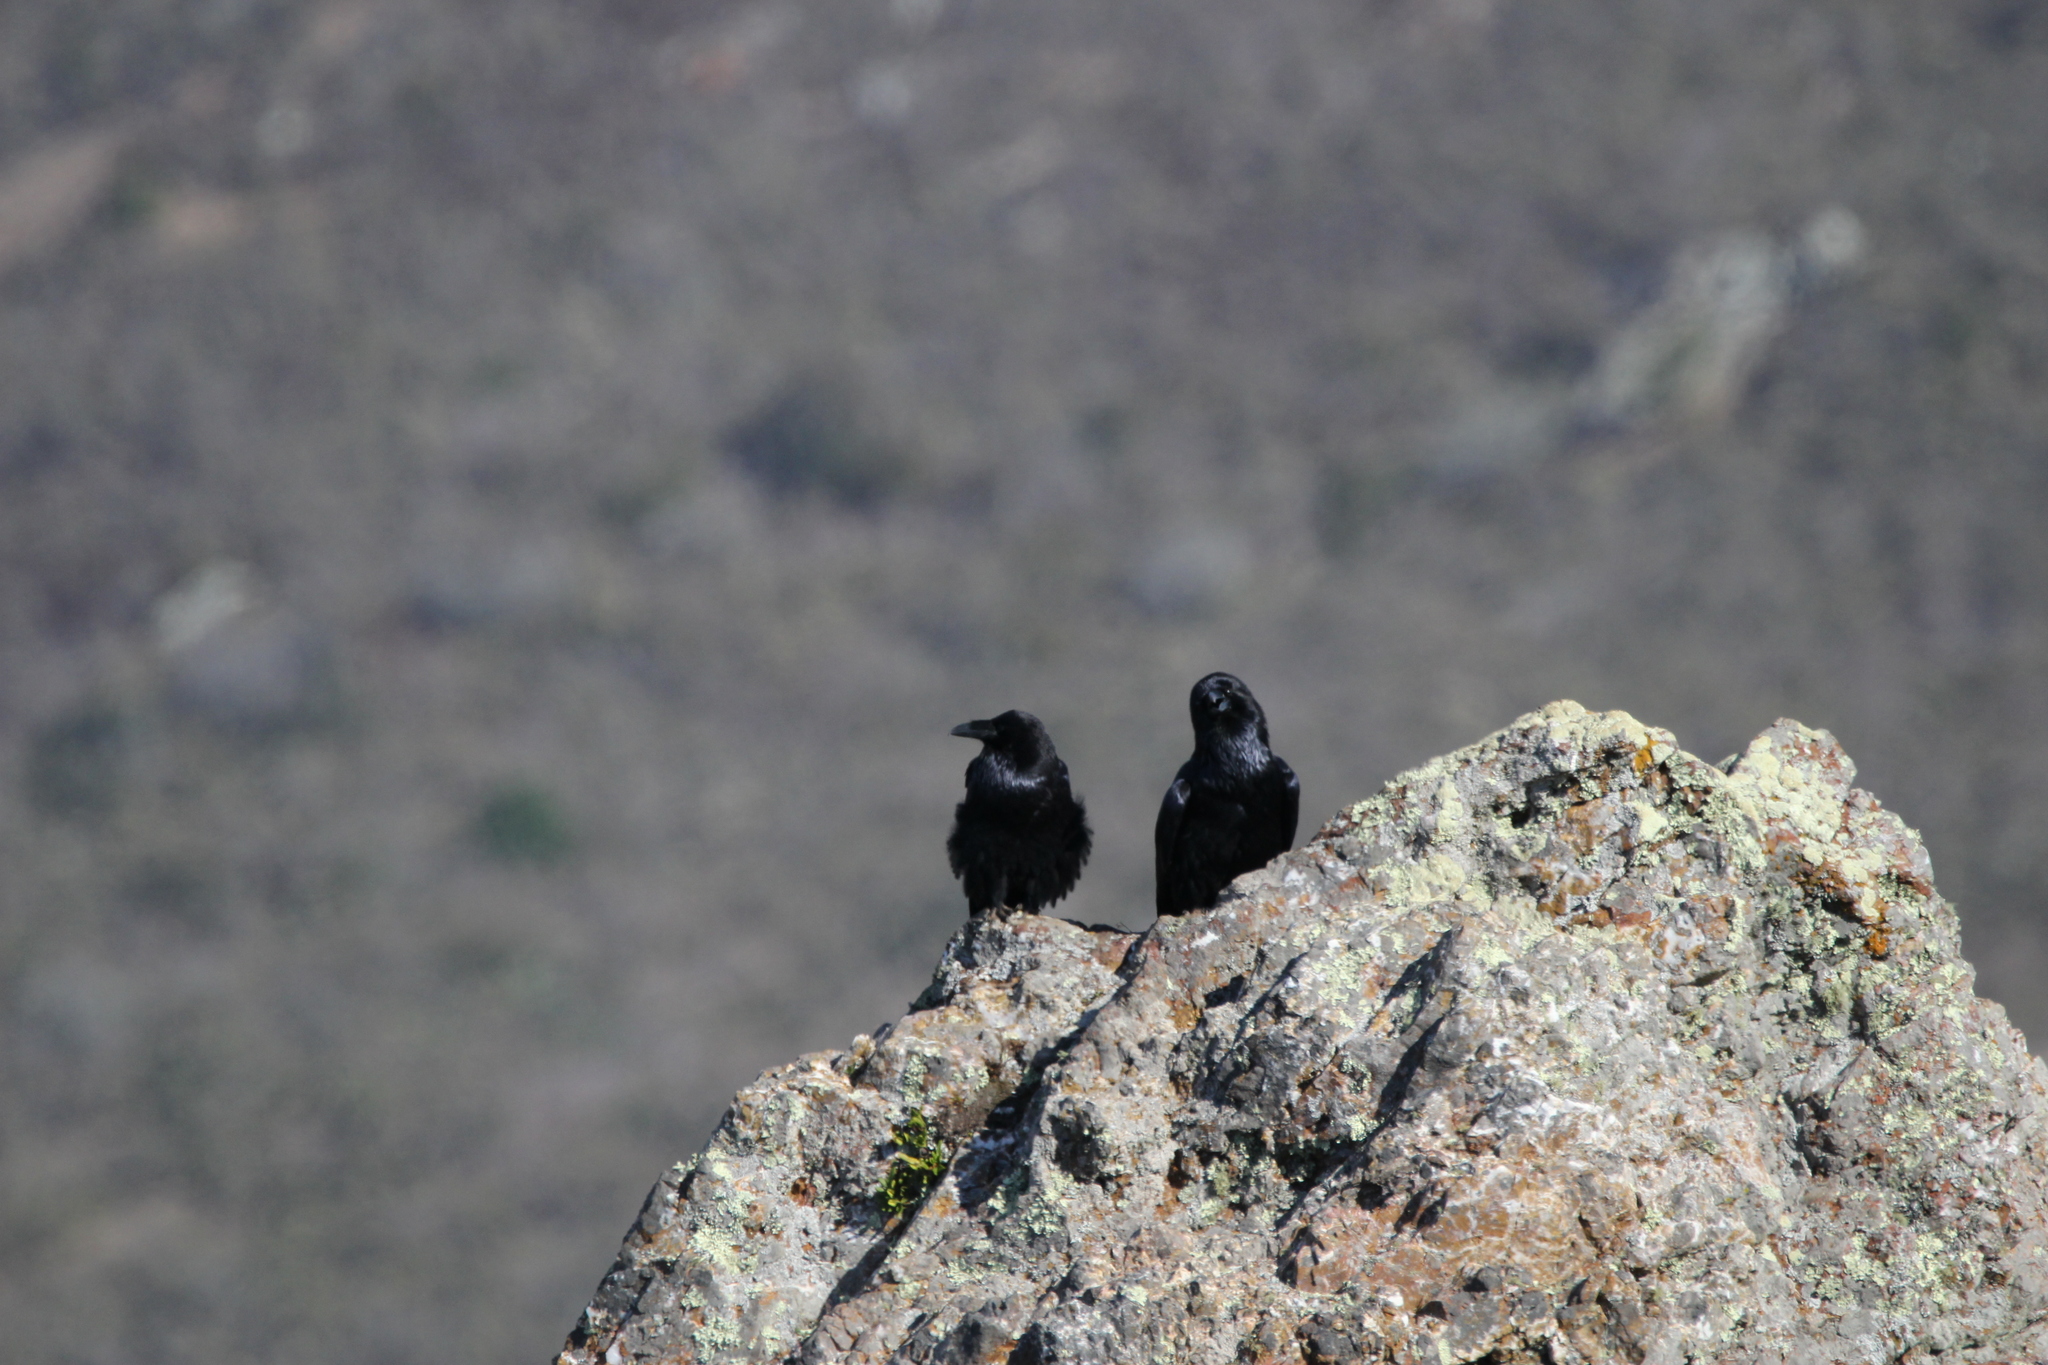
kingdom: Animalia
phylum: Chordata
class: Aves
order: Passeriformes
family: Corvidae
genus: Corvus
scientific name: Corvus corax
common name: Common raven
